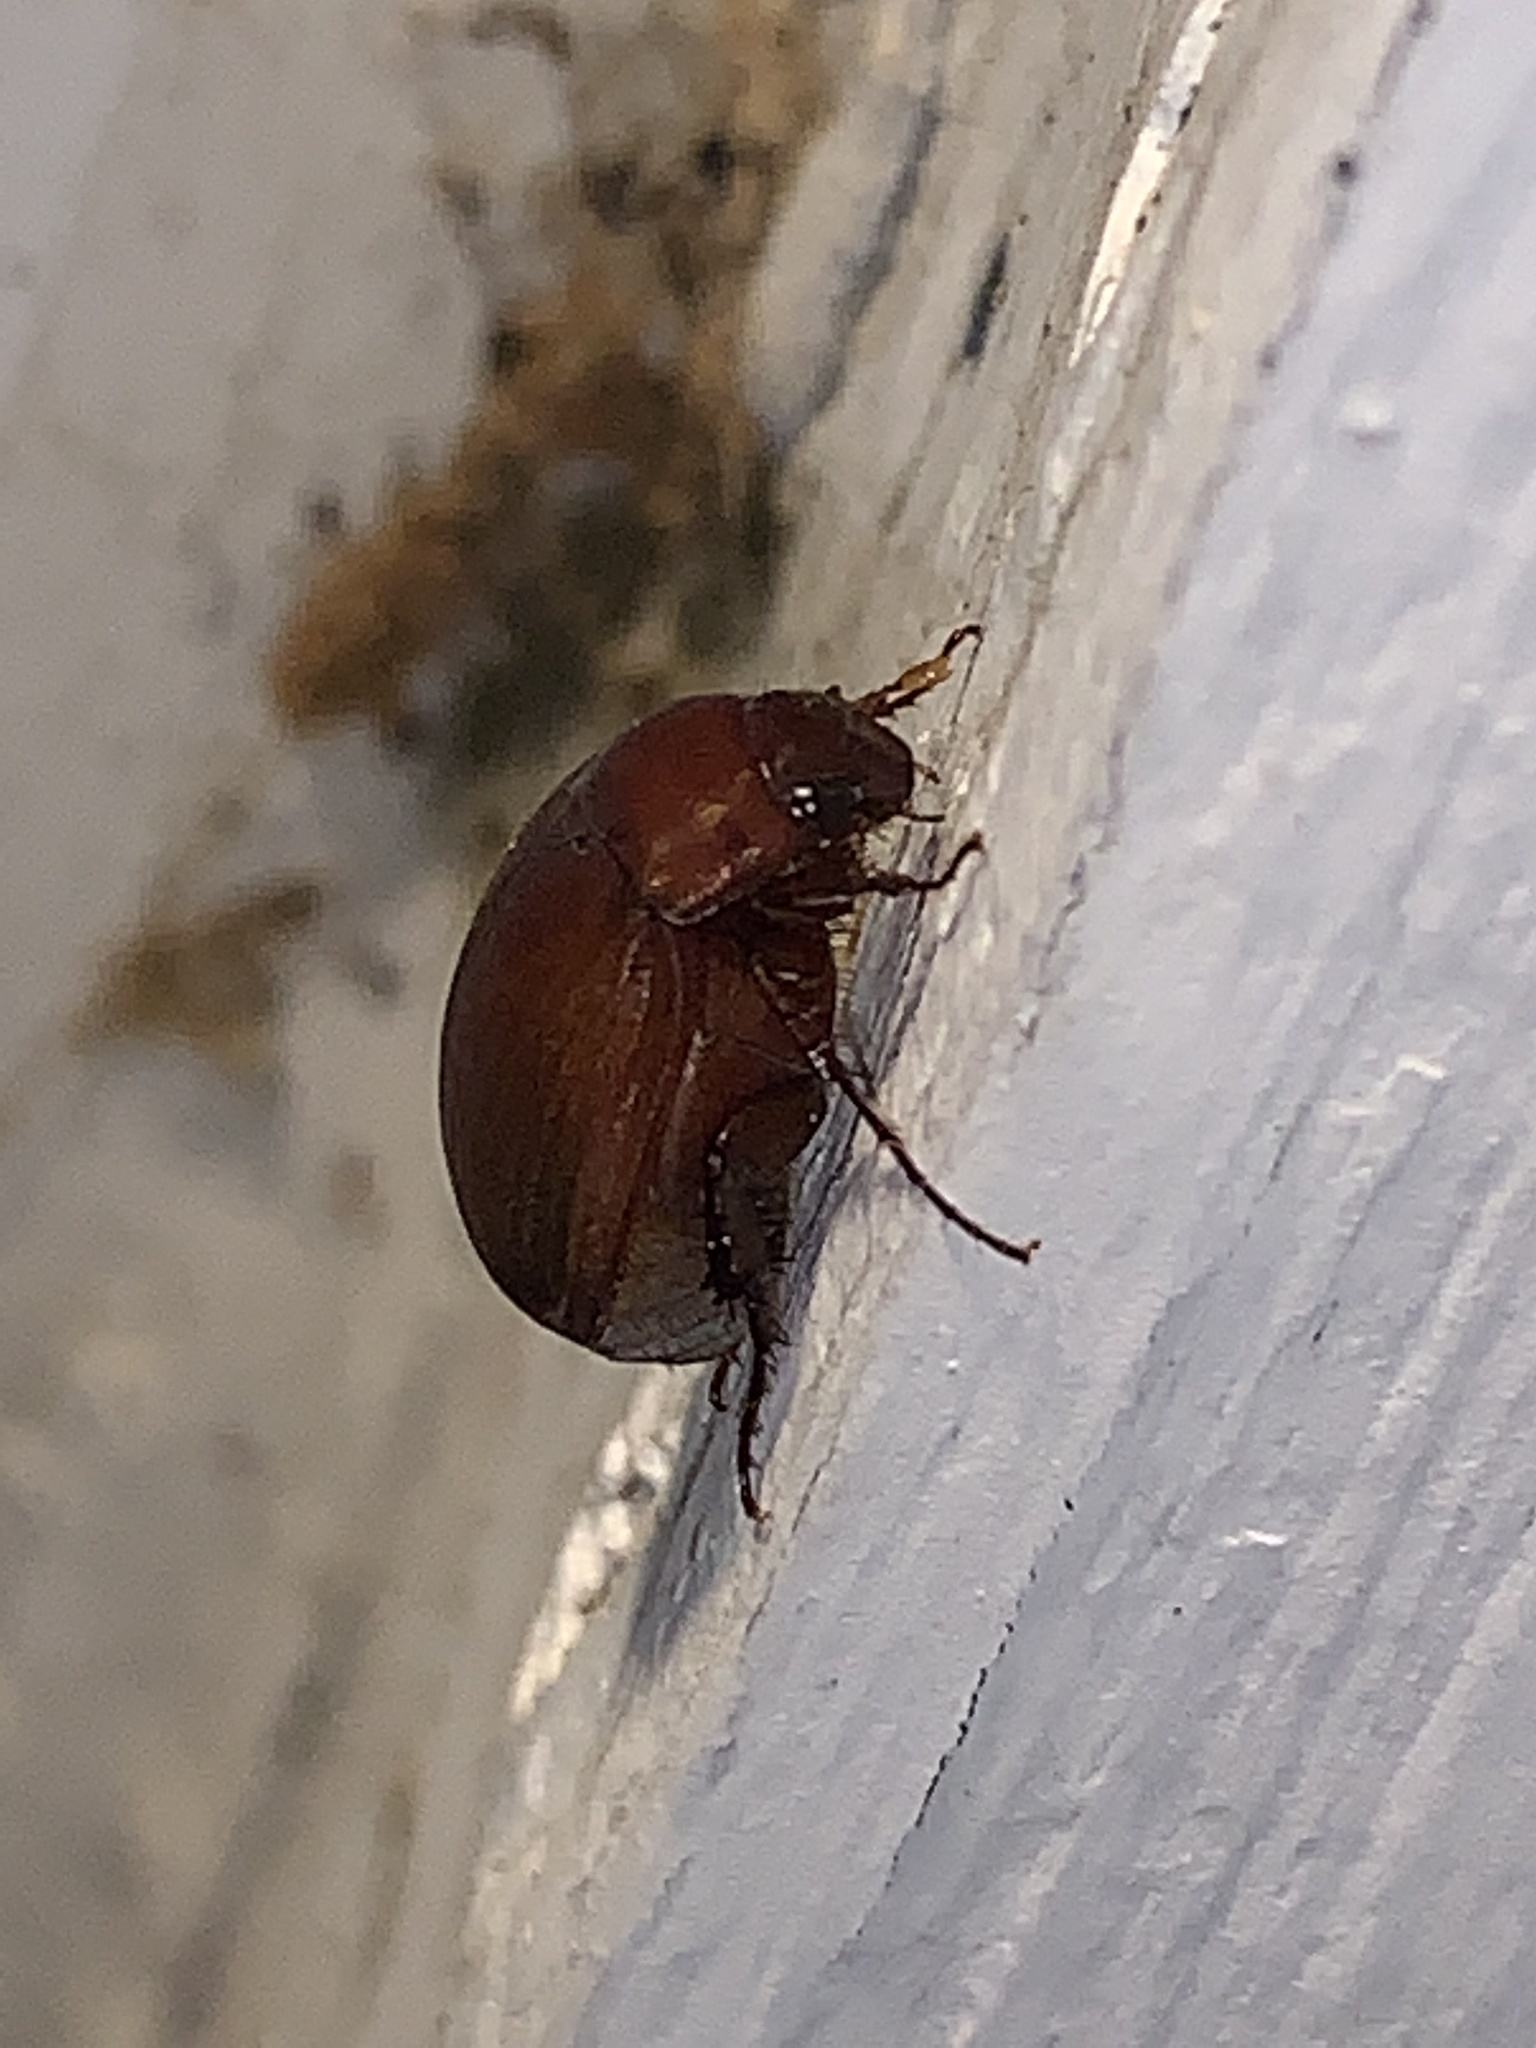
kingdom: Animalia
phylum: Arthropoda
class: Insecta
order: Coleoptera
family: Scarabaeidae
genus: Maladera
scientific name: Maladera formosae
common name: Asiatic garden beetle
